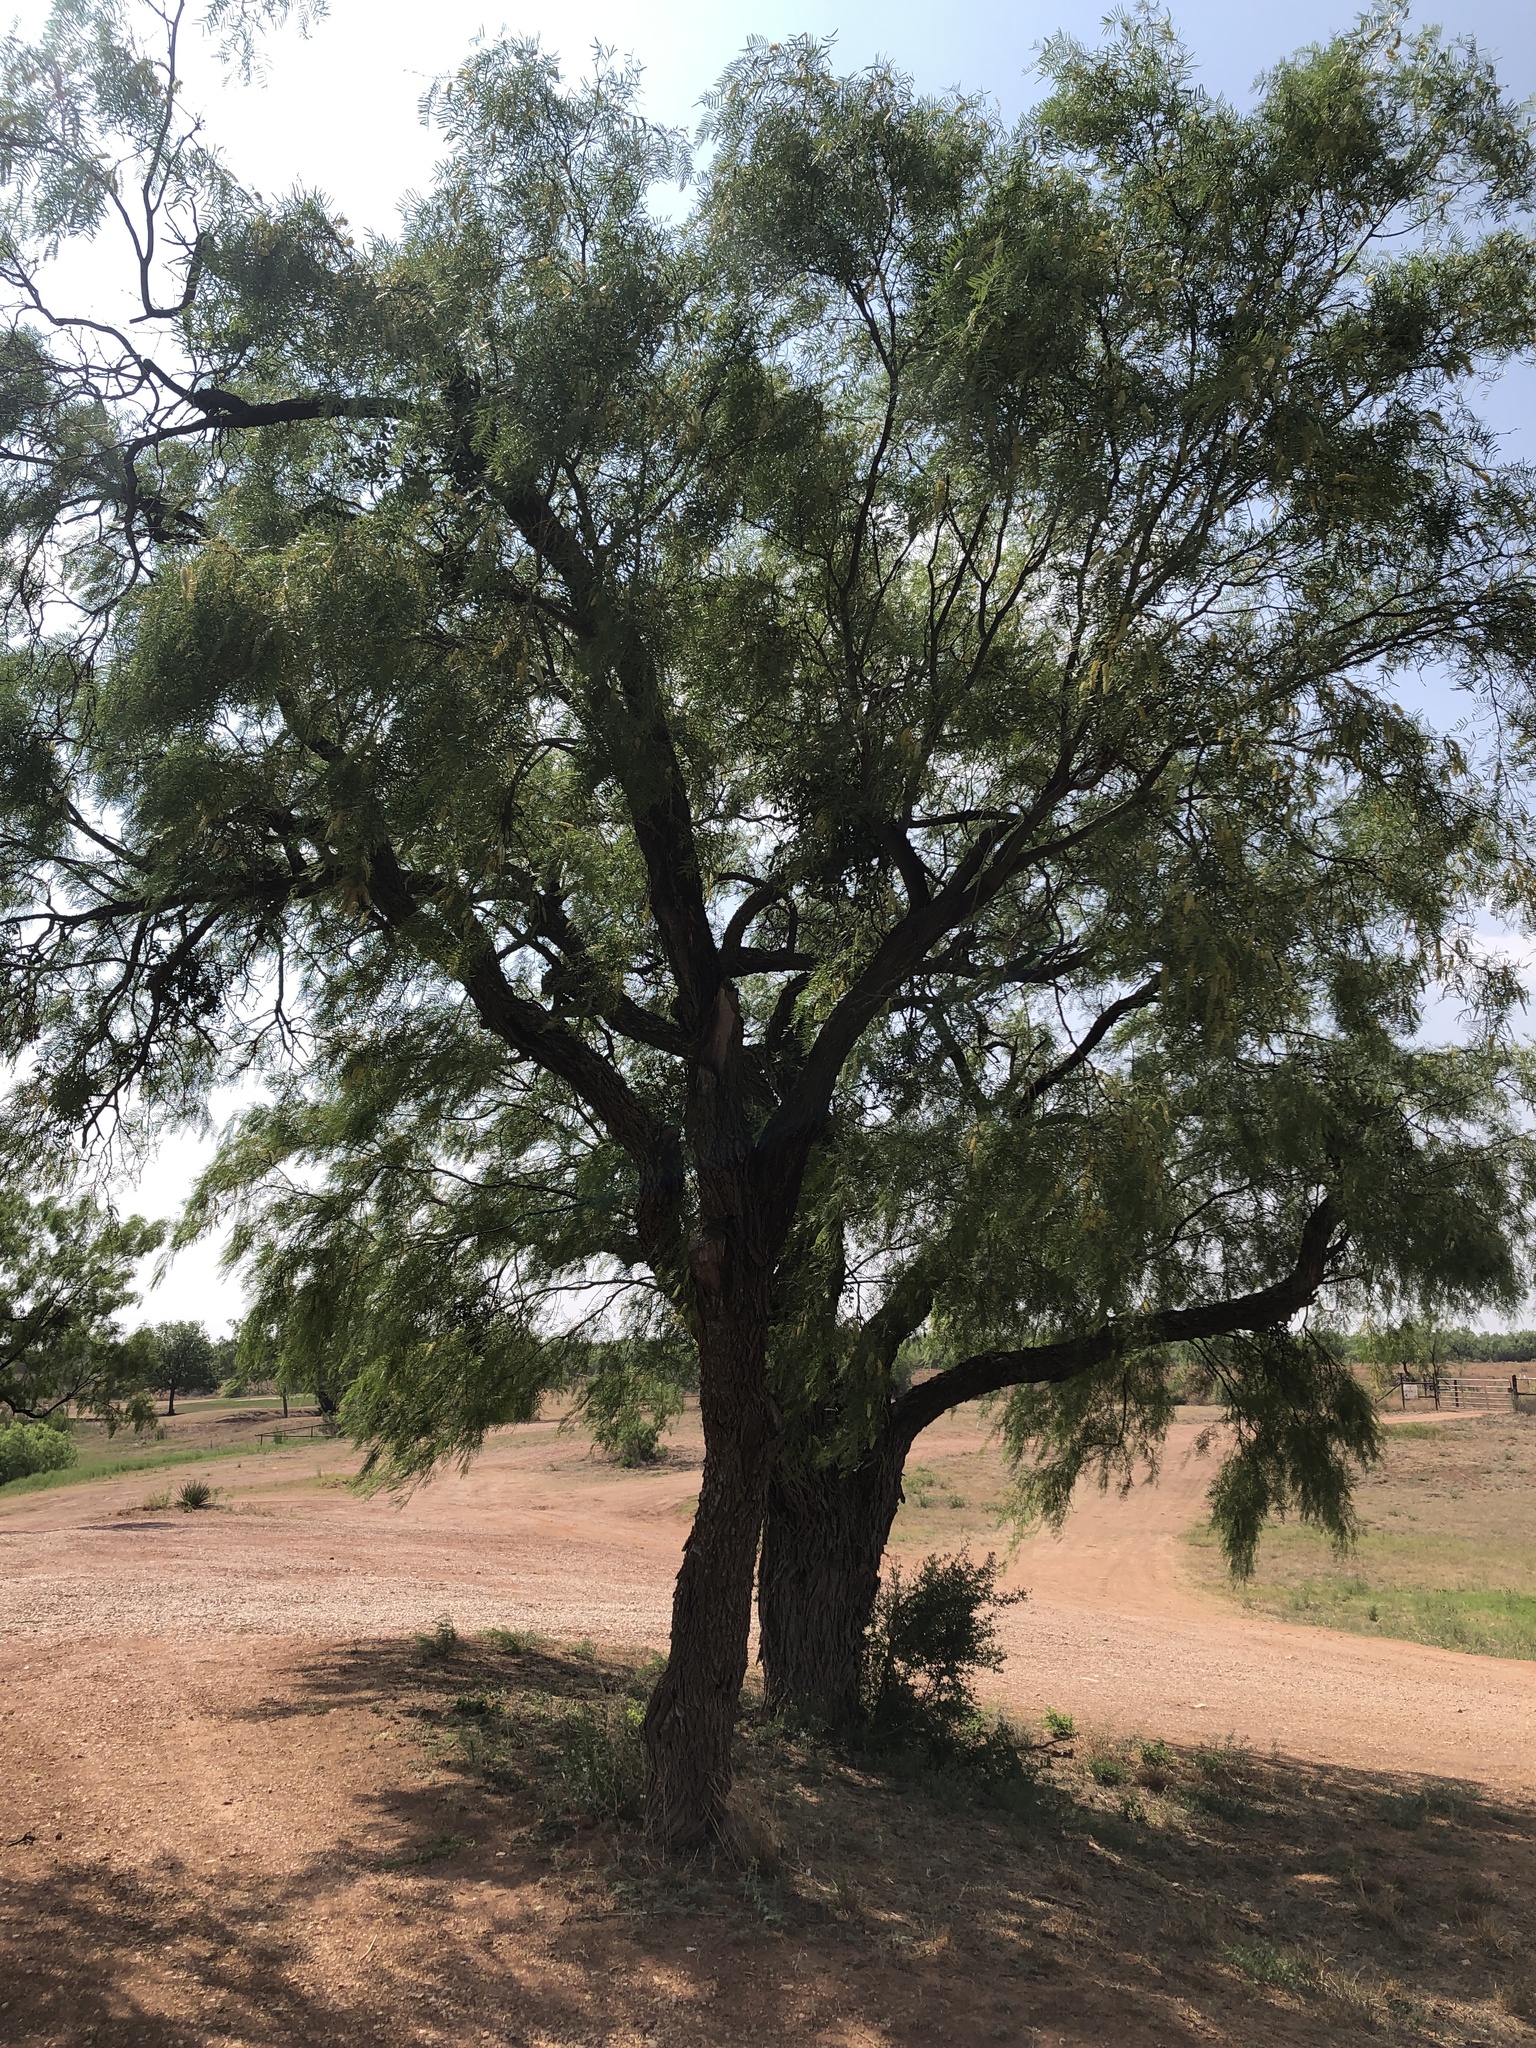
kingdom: Plantae
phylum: Tracheophyta
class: Magnoliopsida
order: Fabales
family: Fabaceae
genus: Prosopis
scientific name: Prosopis glandulosa
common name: Honey mesquite
